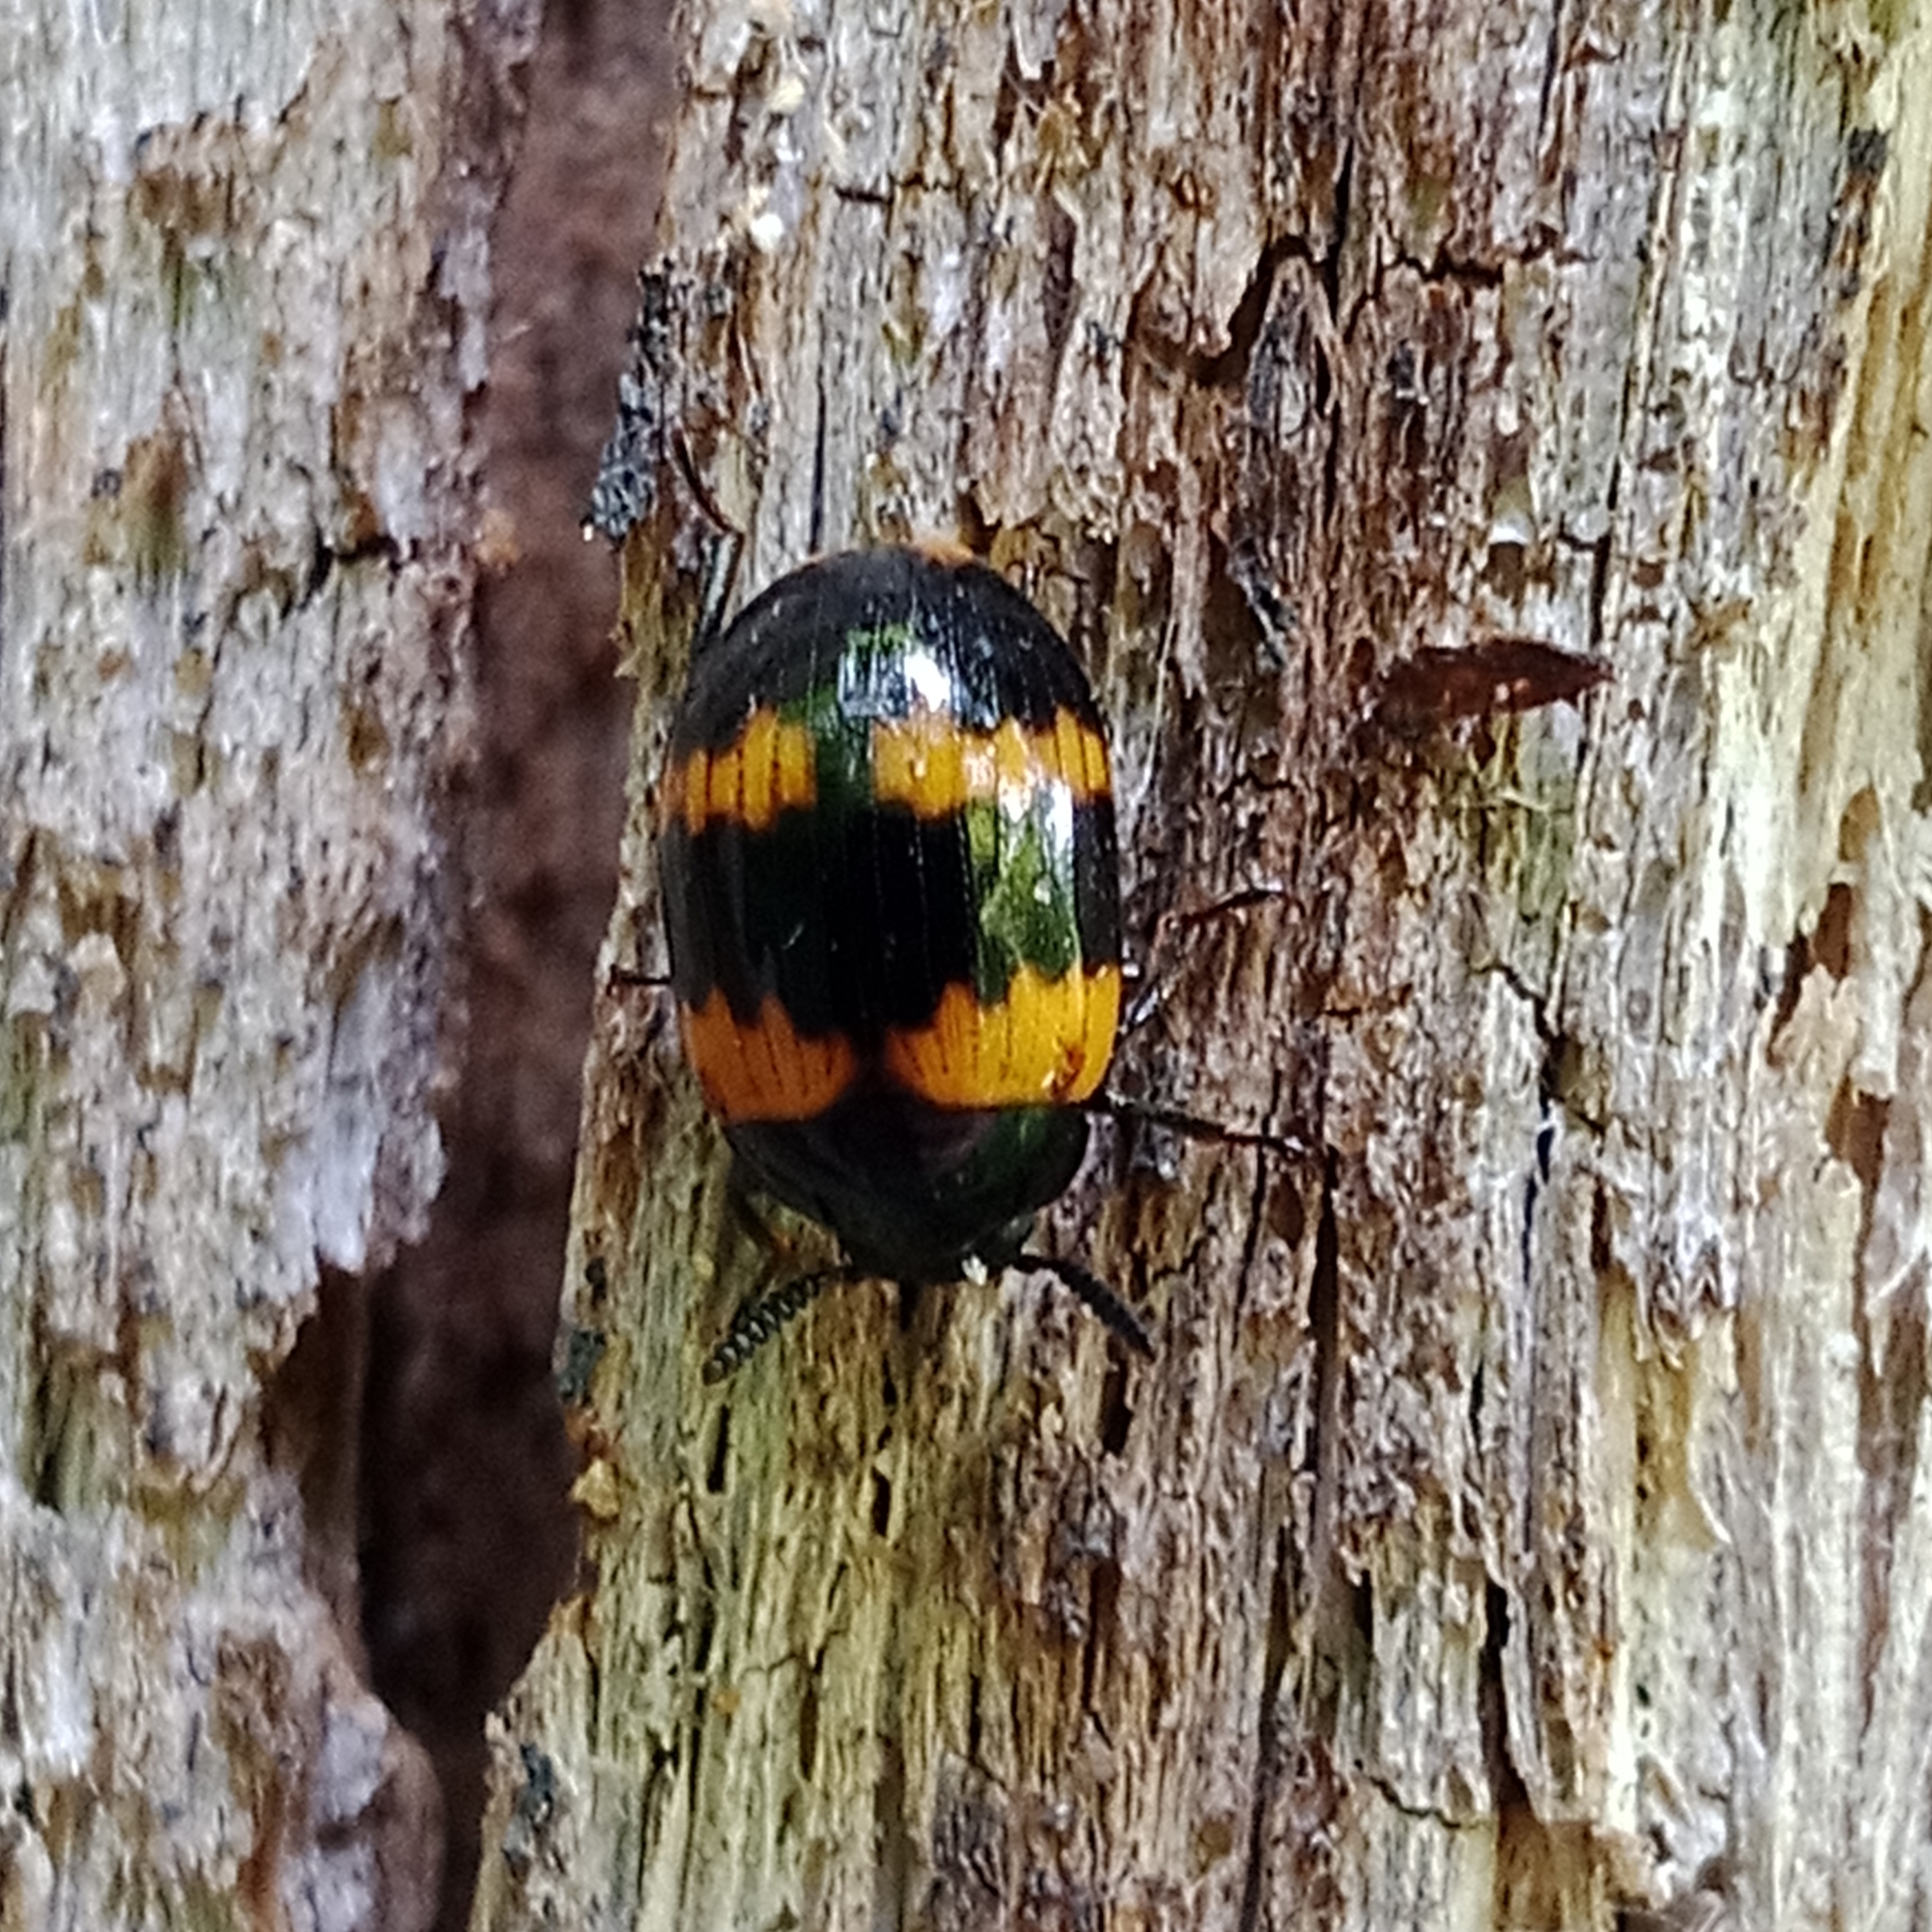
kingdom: Animalia
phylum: Arthropoda
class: Insecta
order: Coleoptera
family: Tenebrionidae
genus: Diaperis
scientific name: Diaperis boleti
